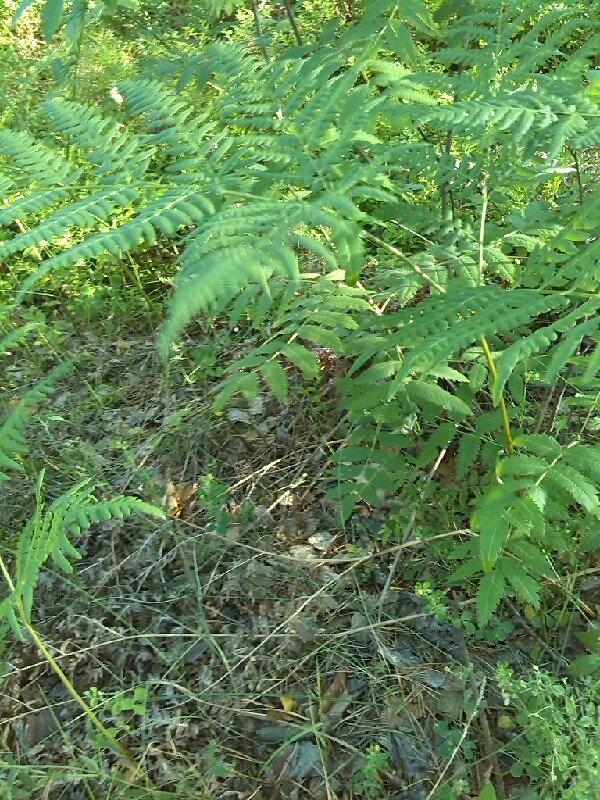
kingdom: Plantae
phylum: Tracheophyta
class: Polypodiopsida
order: Polypodiales
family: Dennstaedtiaceae
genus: Pteridium
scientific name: Pteridium aquilinum
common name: Bracken
